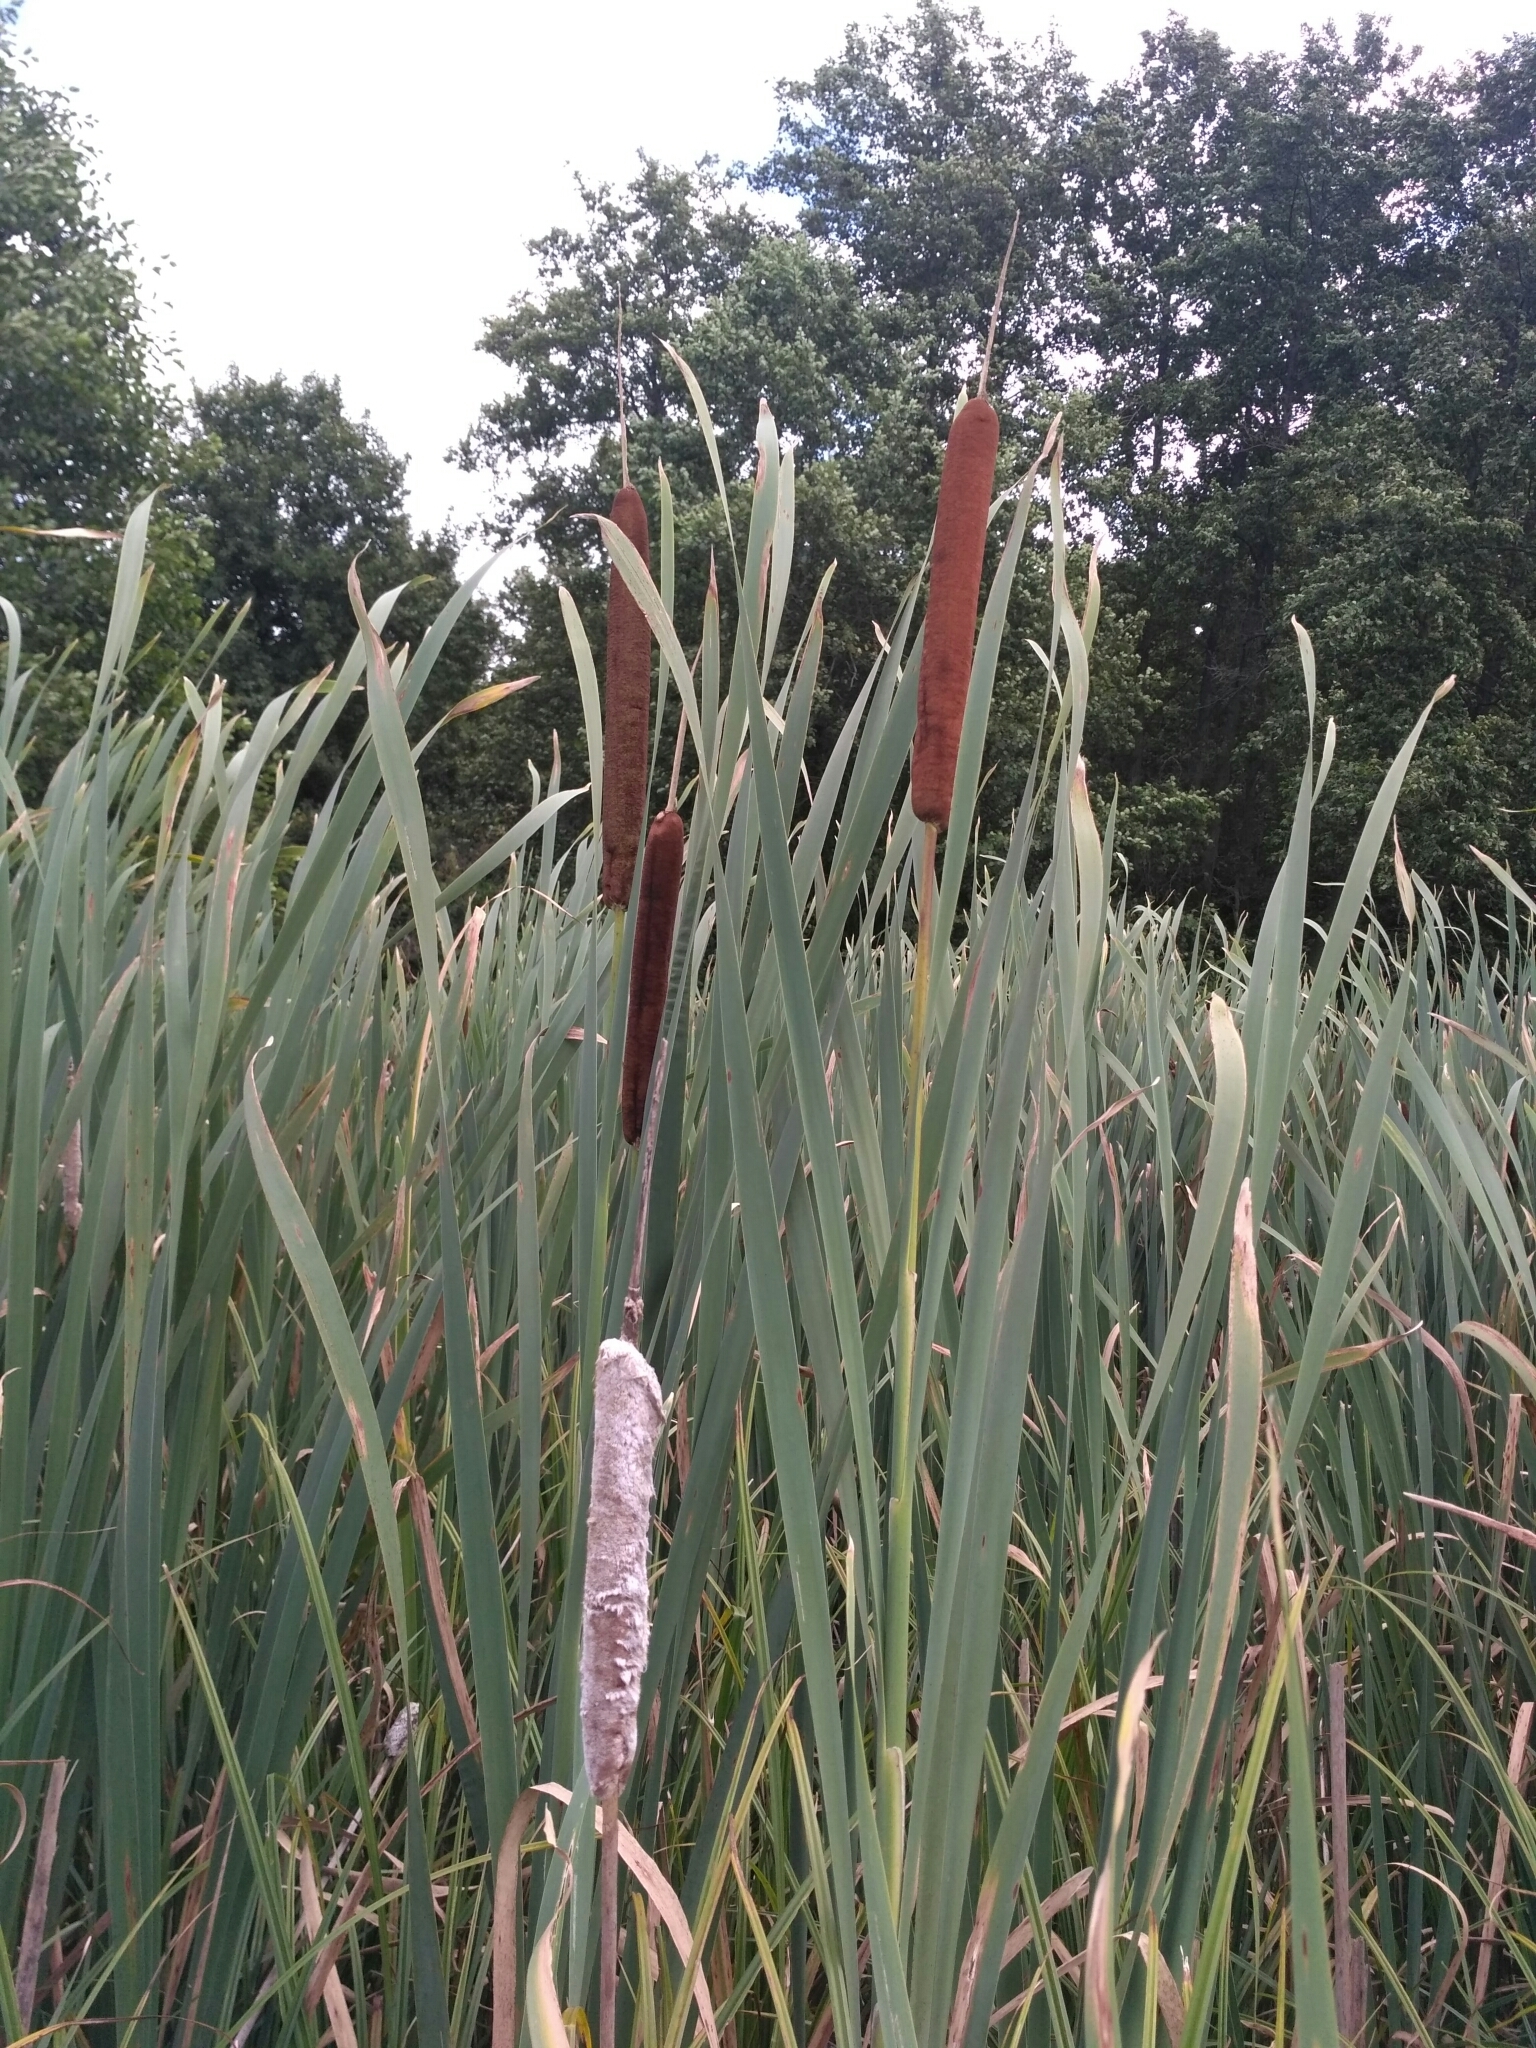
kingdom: Plantae
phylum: Tracheophyta
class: Liliopsida
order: Poales
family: Typhaceae
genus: Typha
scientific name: Typha latifolia
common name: Broadleaf cattail
